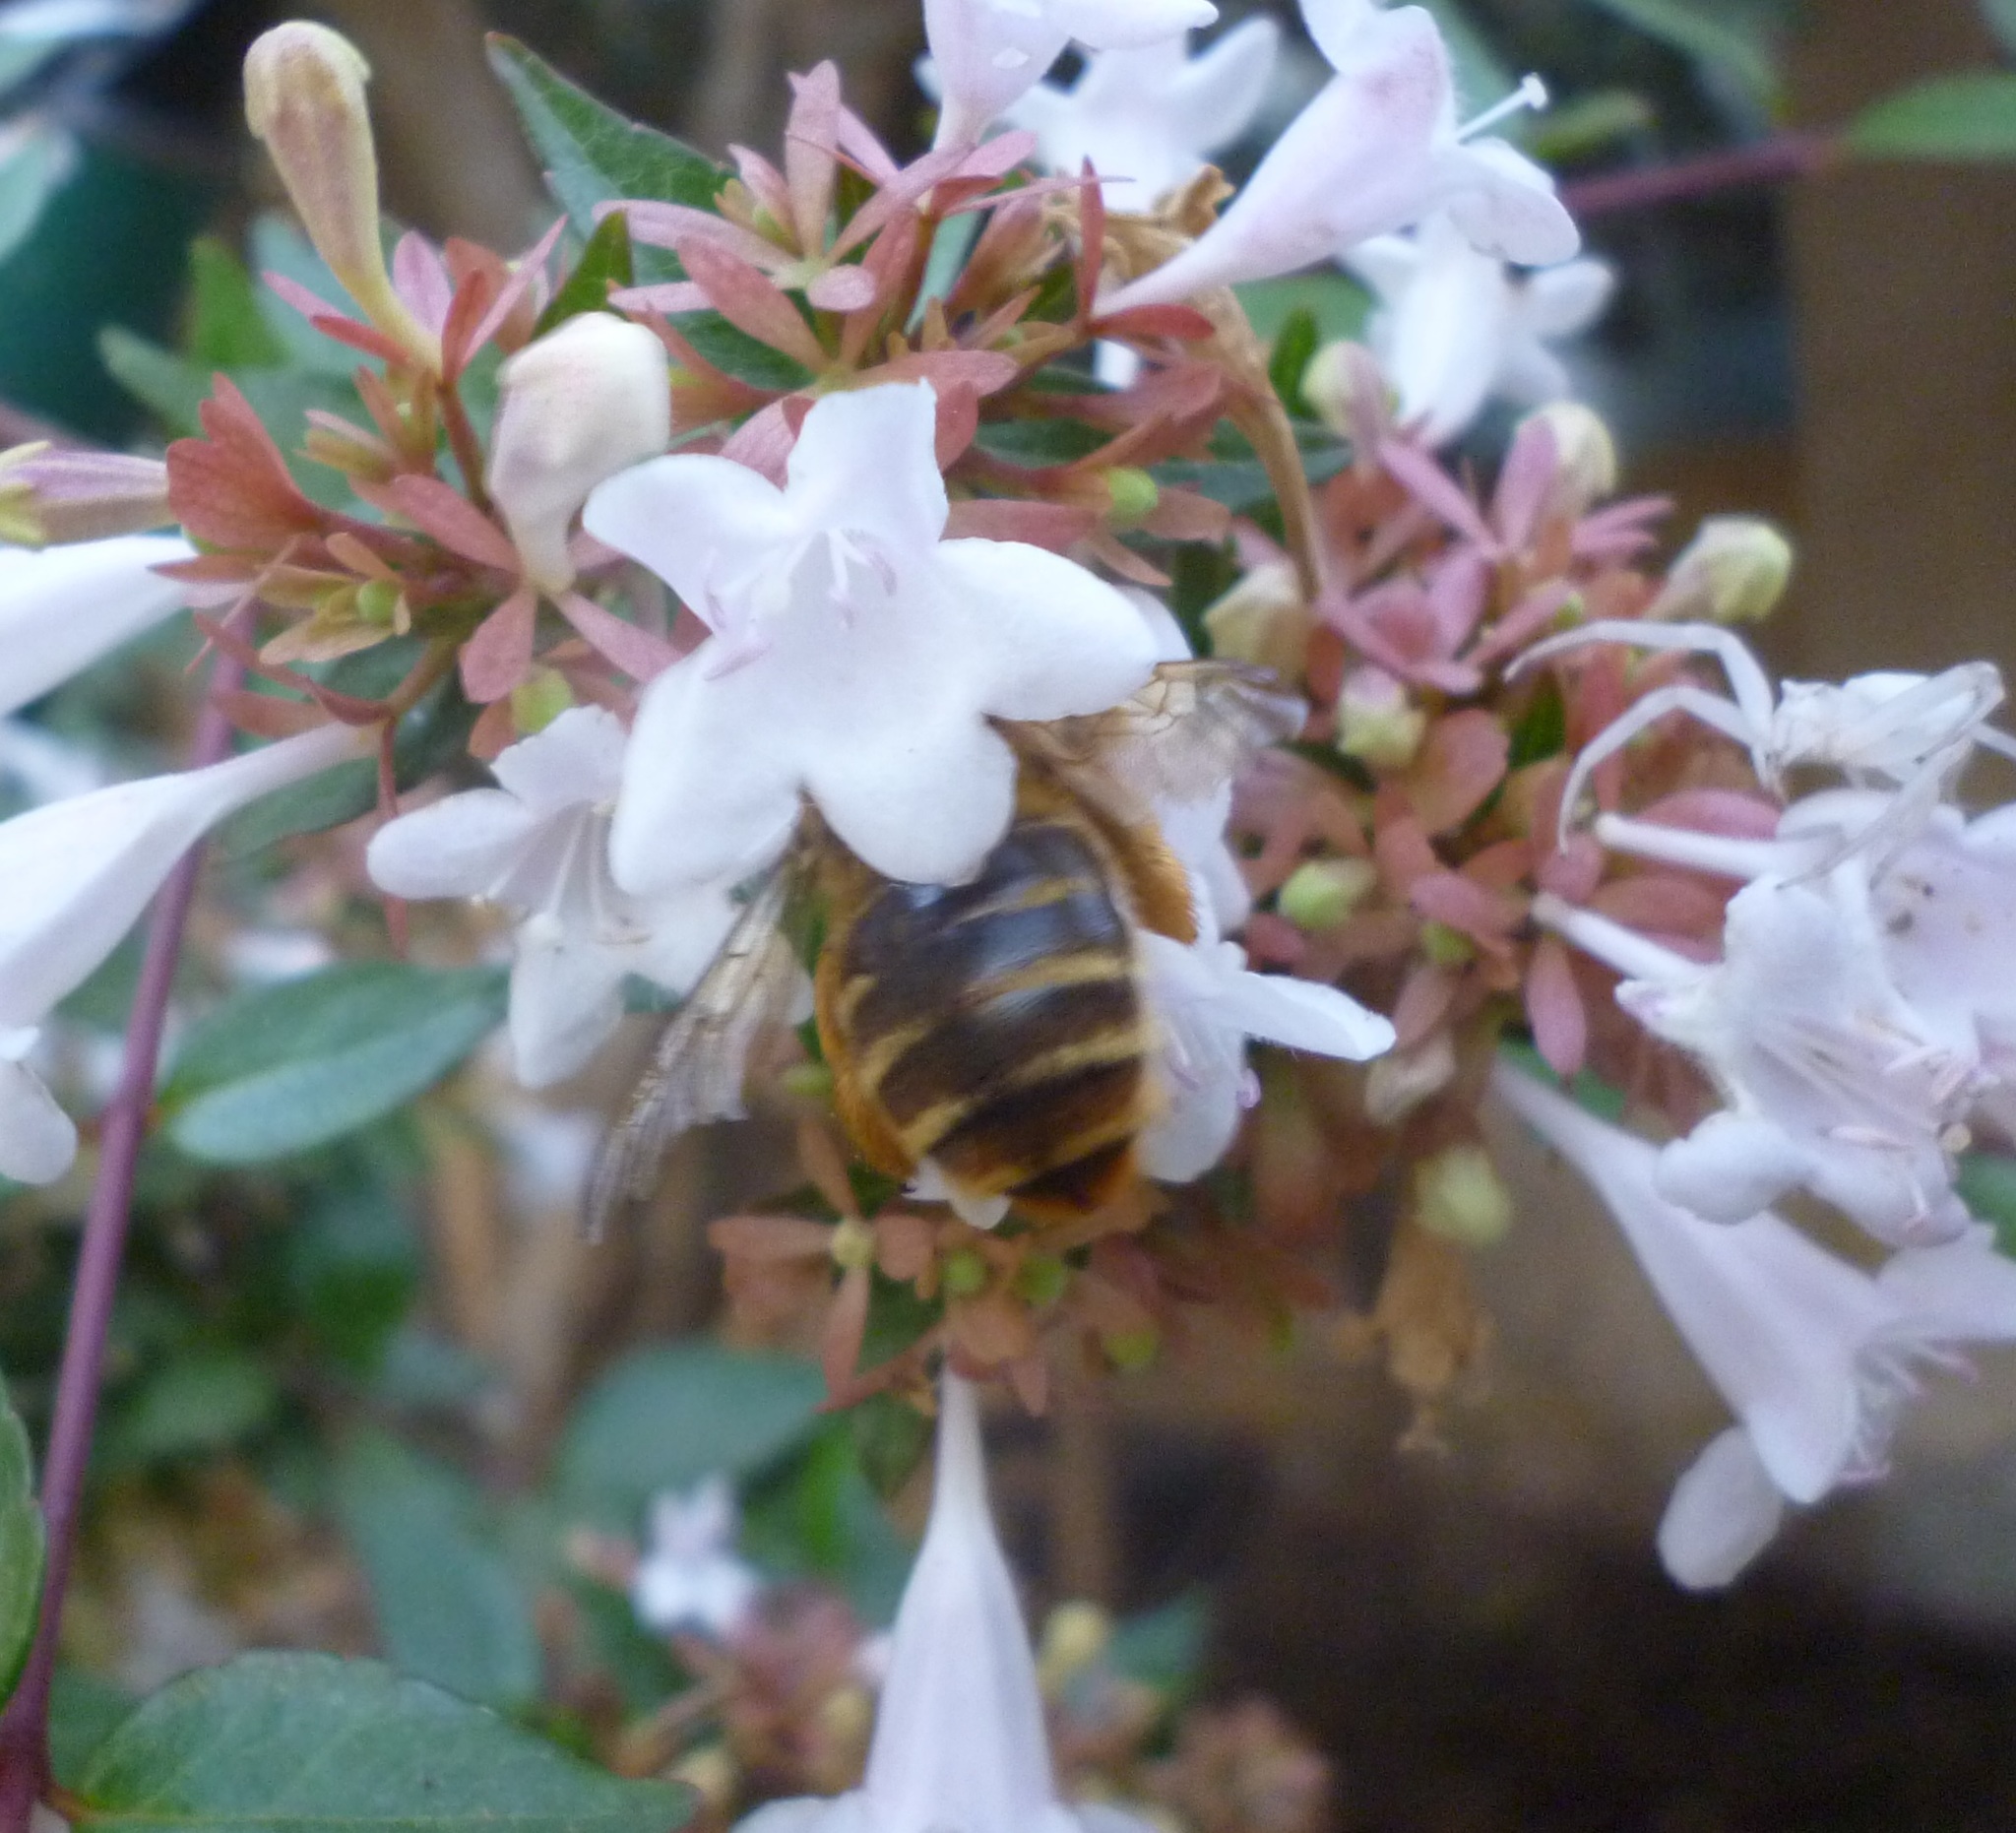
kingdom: Animalia
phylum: Arthropoda
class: Insecta
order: Hymenoptera
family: Apidae
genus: Xylocopa
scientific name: Xylocopa olivieri
